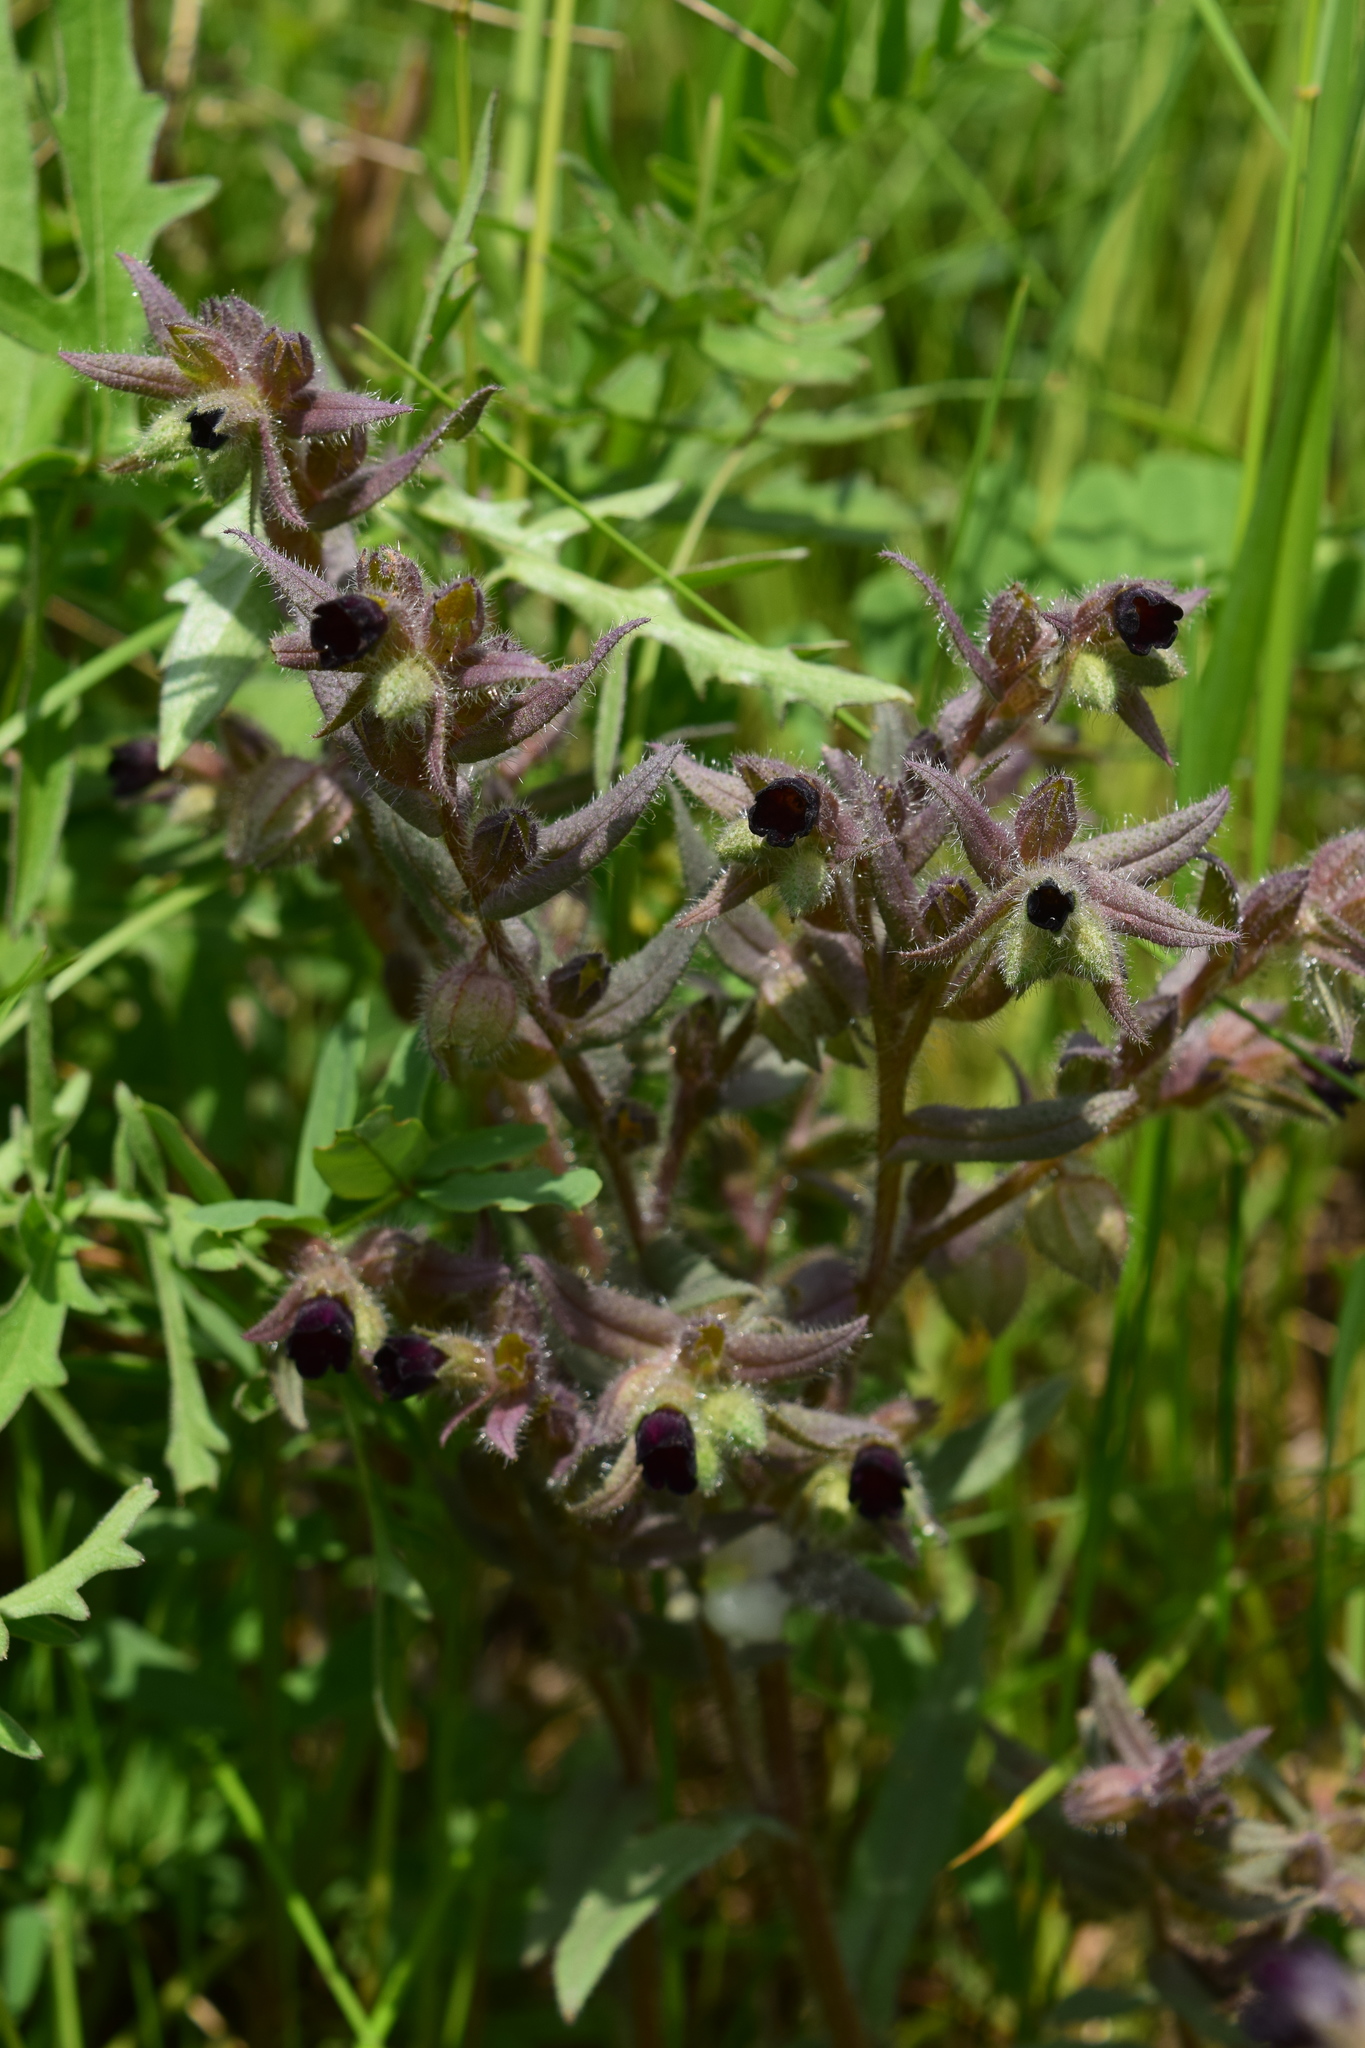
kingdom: Plantae
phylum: Tracheophyta
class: Magnoliopsida
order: Boraginales
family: Boraginaceae
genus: Nonea
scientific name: Nonea pulla
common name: Brown nonea
